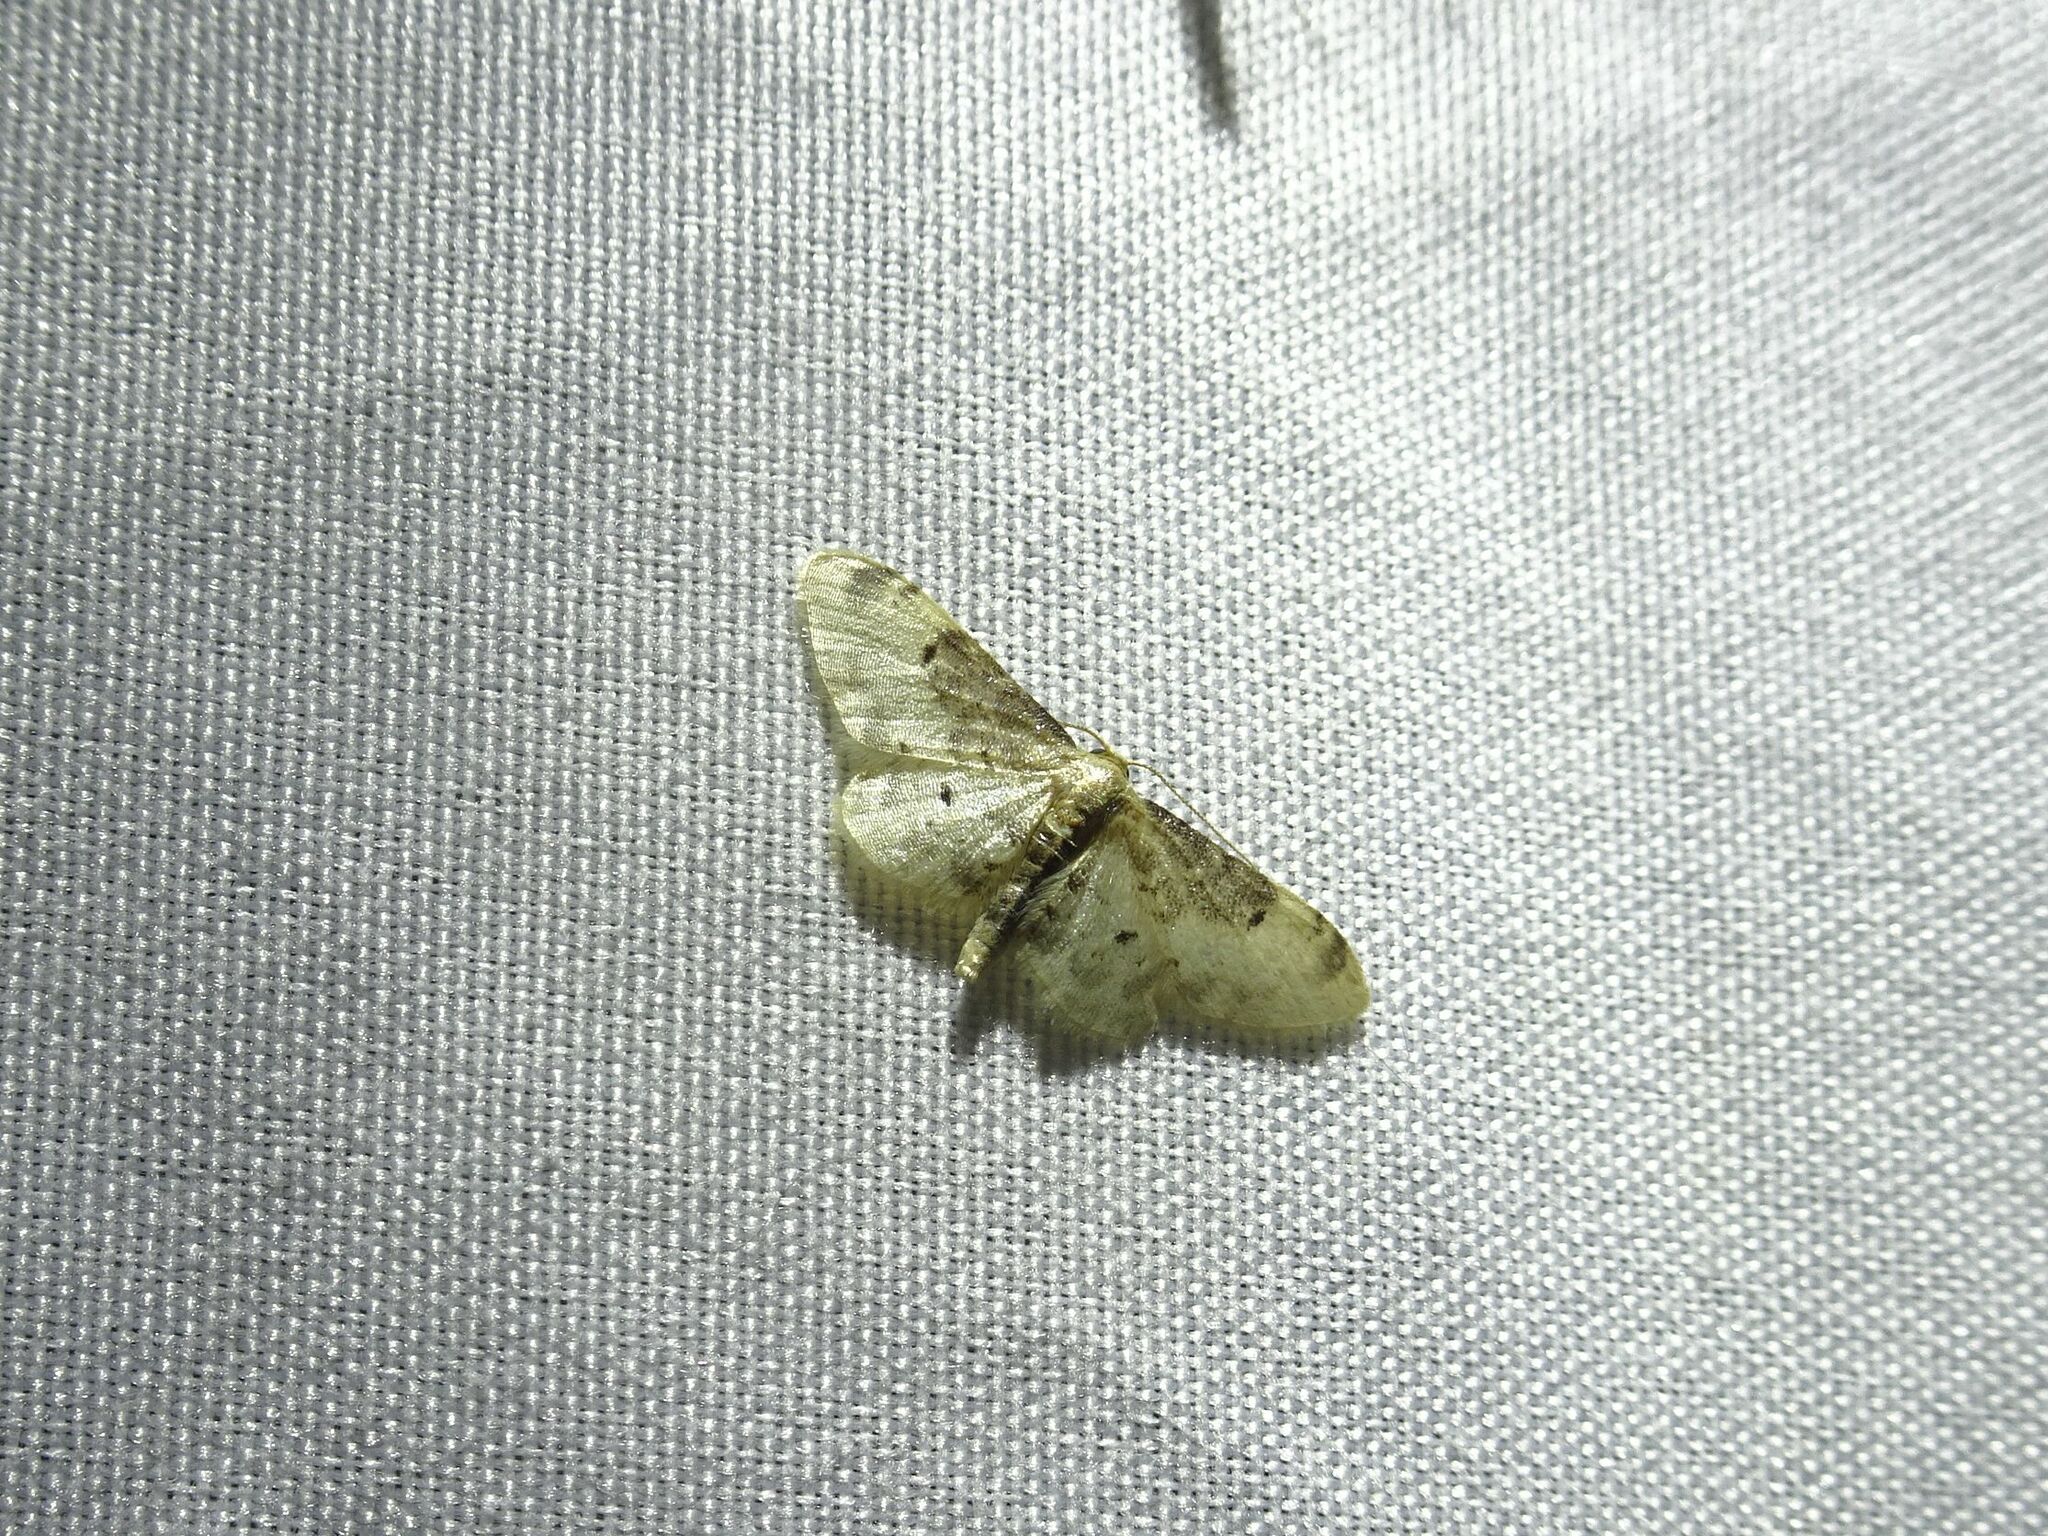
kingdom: Animalia
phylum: Arthropoda
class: Insecta
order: Lepidoptera
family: Geometridae
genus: Idaea
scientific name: Idaea filicata
